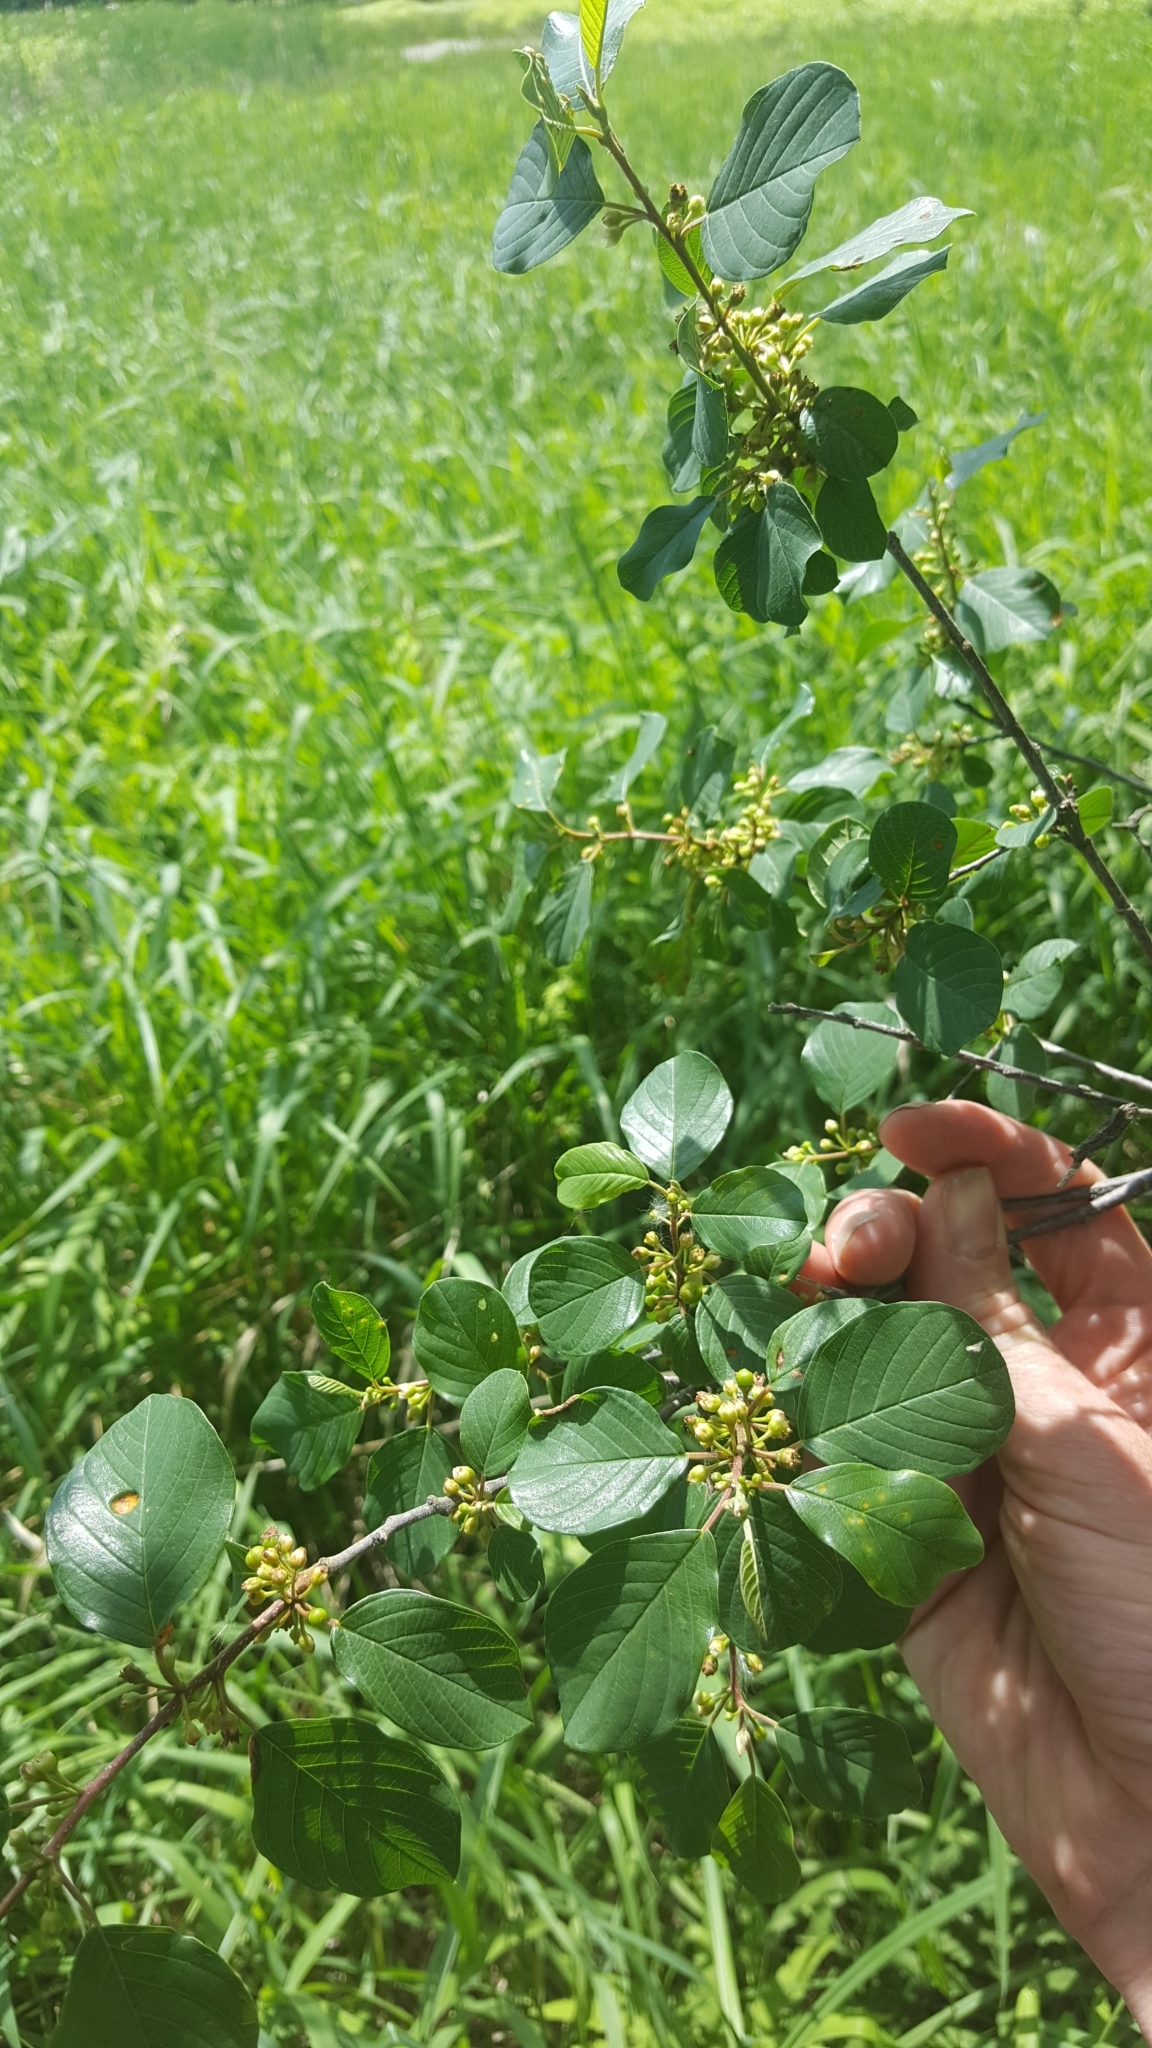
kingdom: Plantae
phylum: Tracheophyta
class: Magnoliopsida
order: Rosales
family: Rhamnaceae
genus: Frangula
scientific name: Frangula alnus
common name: Alder buckthorn
